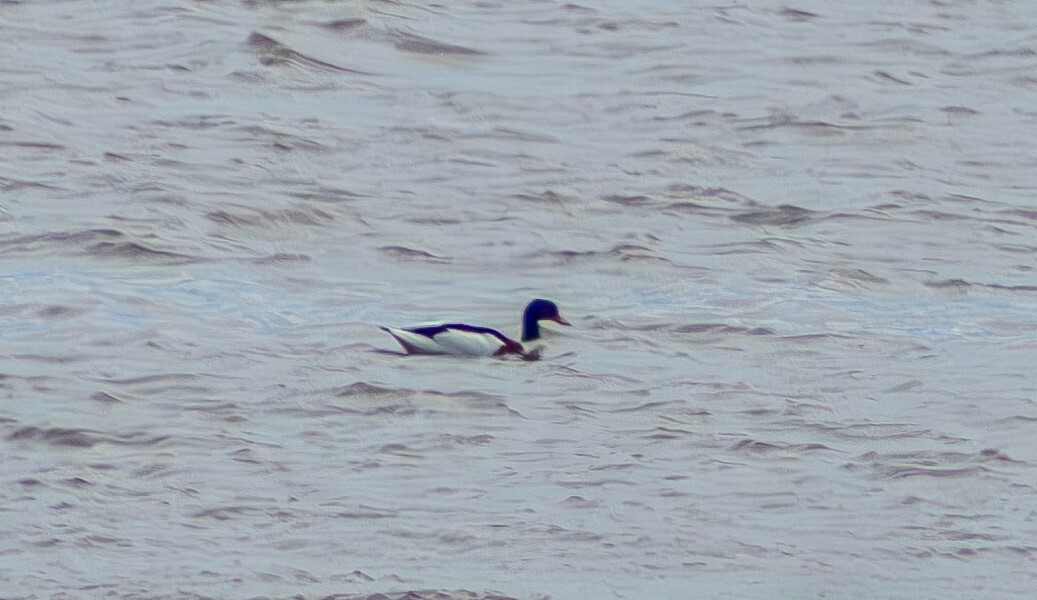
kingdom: Animalia
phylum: Chordata
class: Aves
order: Anseriformes
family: Anatidae
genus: Tadorna
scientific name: Tadorna tadorna
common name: Common shelduck
